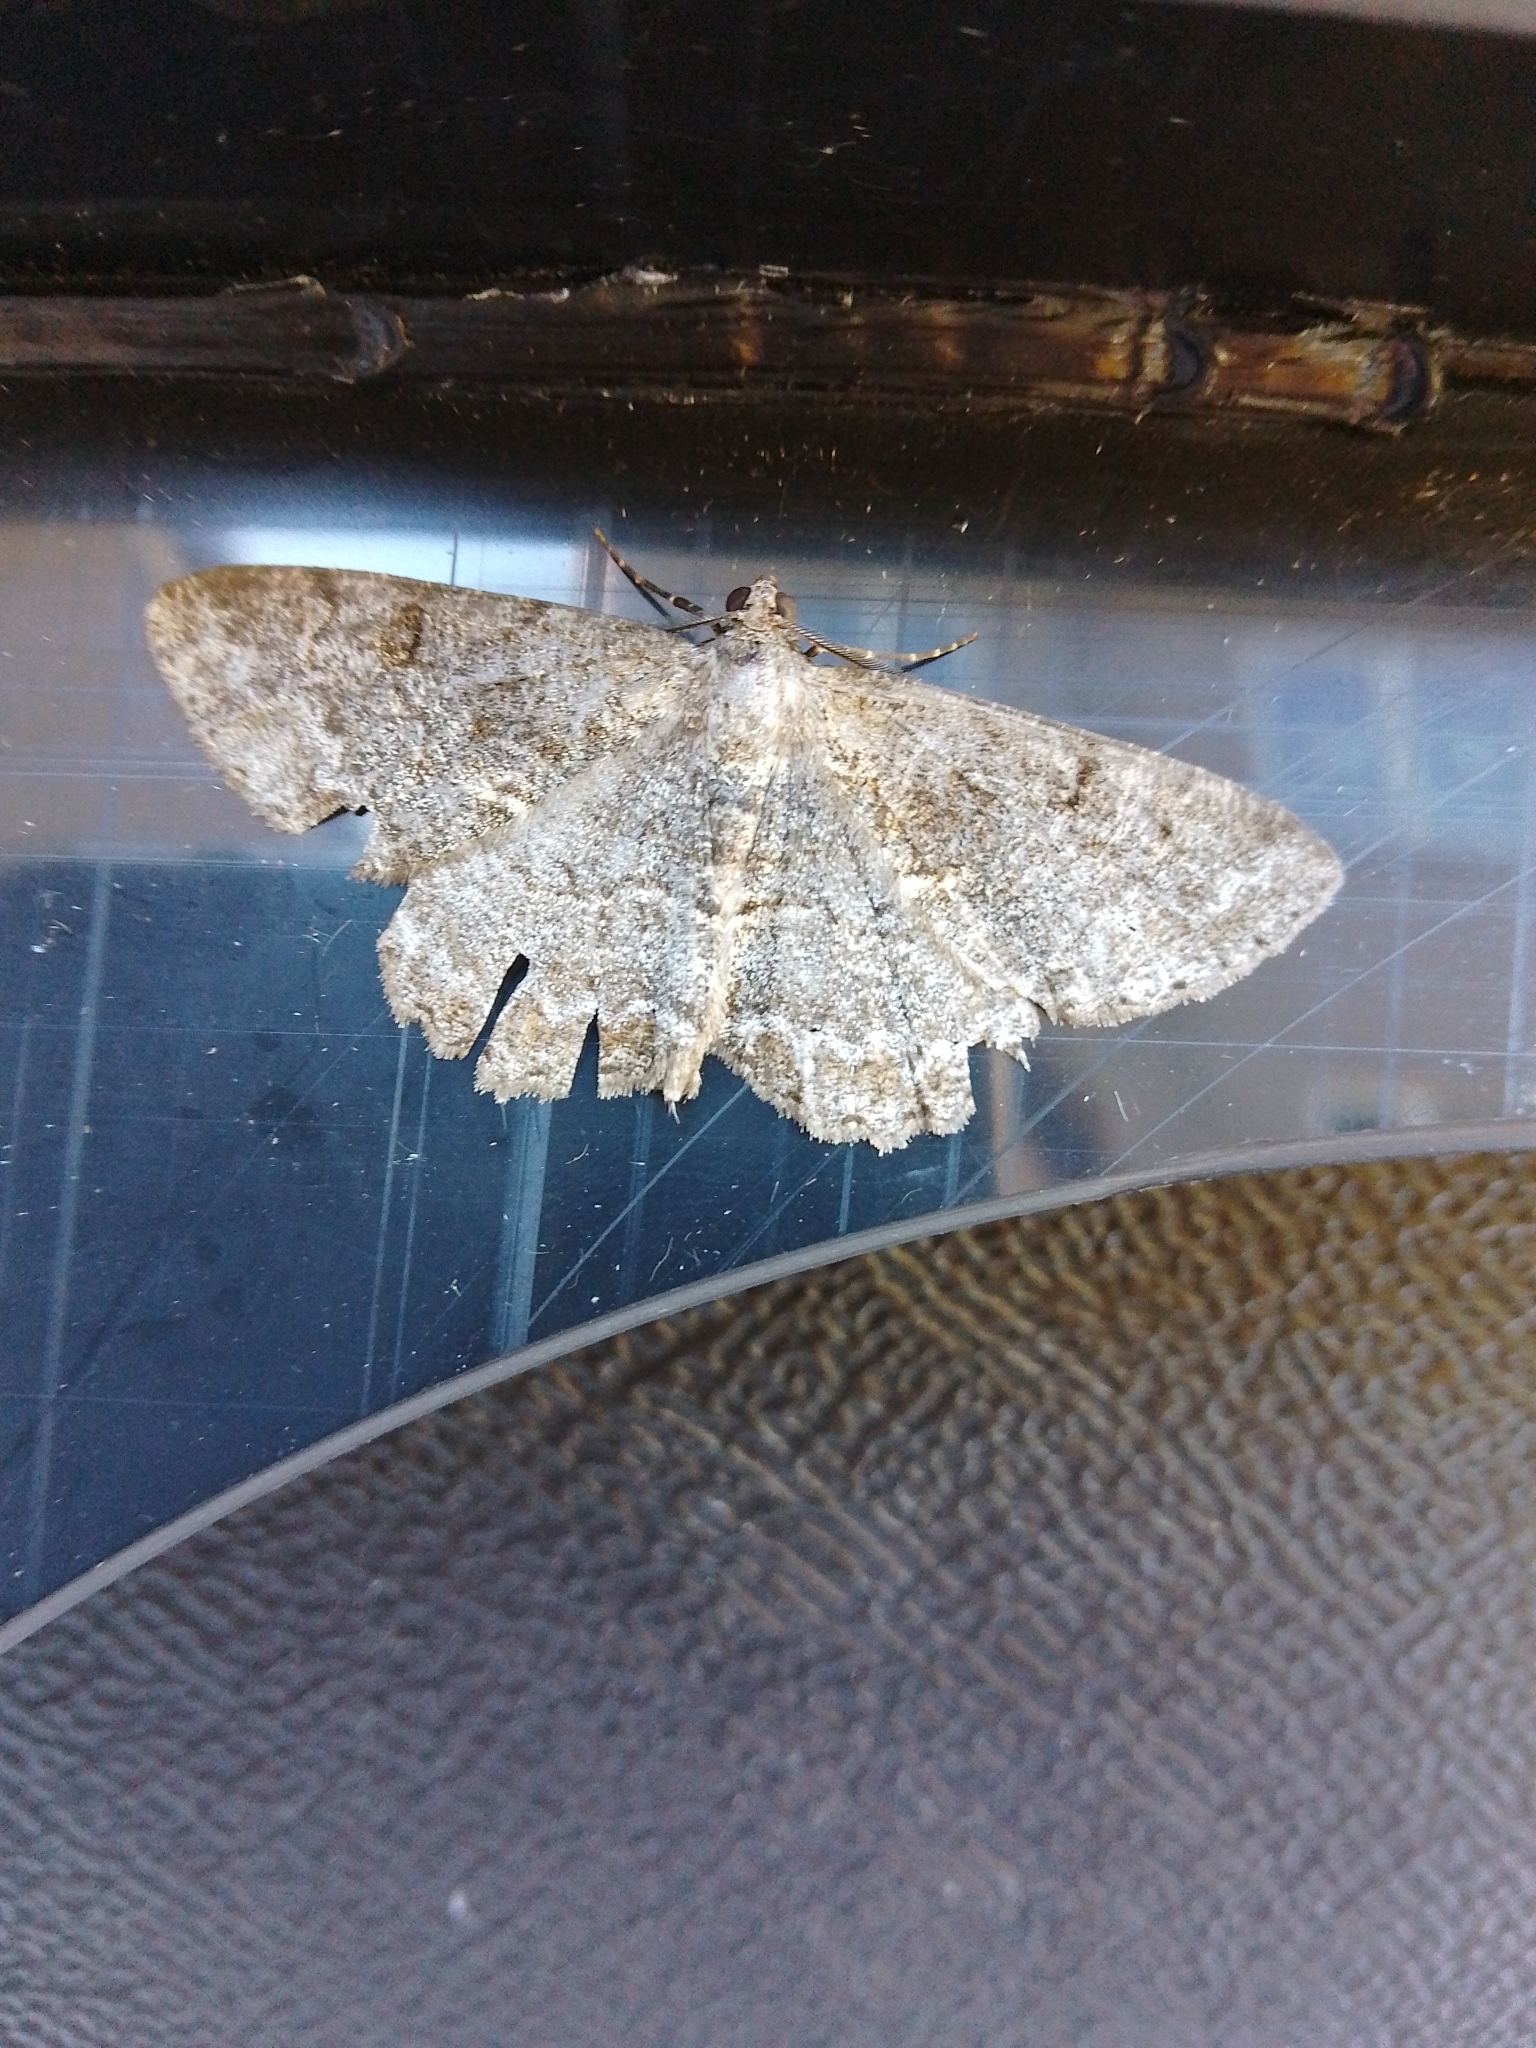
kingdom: Animalia
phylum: Arthropoda
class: Insecta
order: Lepidoptera
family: Geometridae
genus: Alcis
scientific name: Alcis repandata
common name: Mottled beauty
